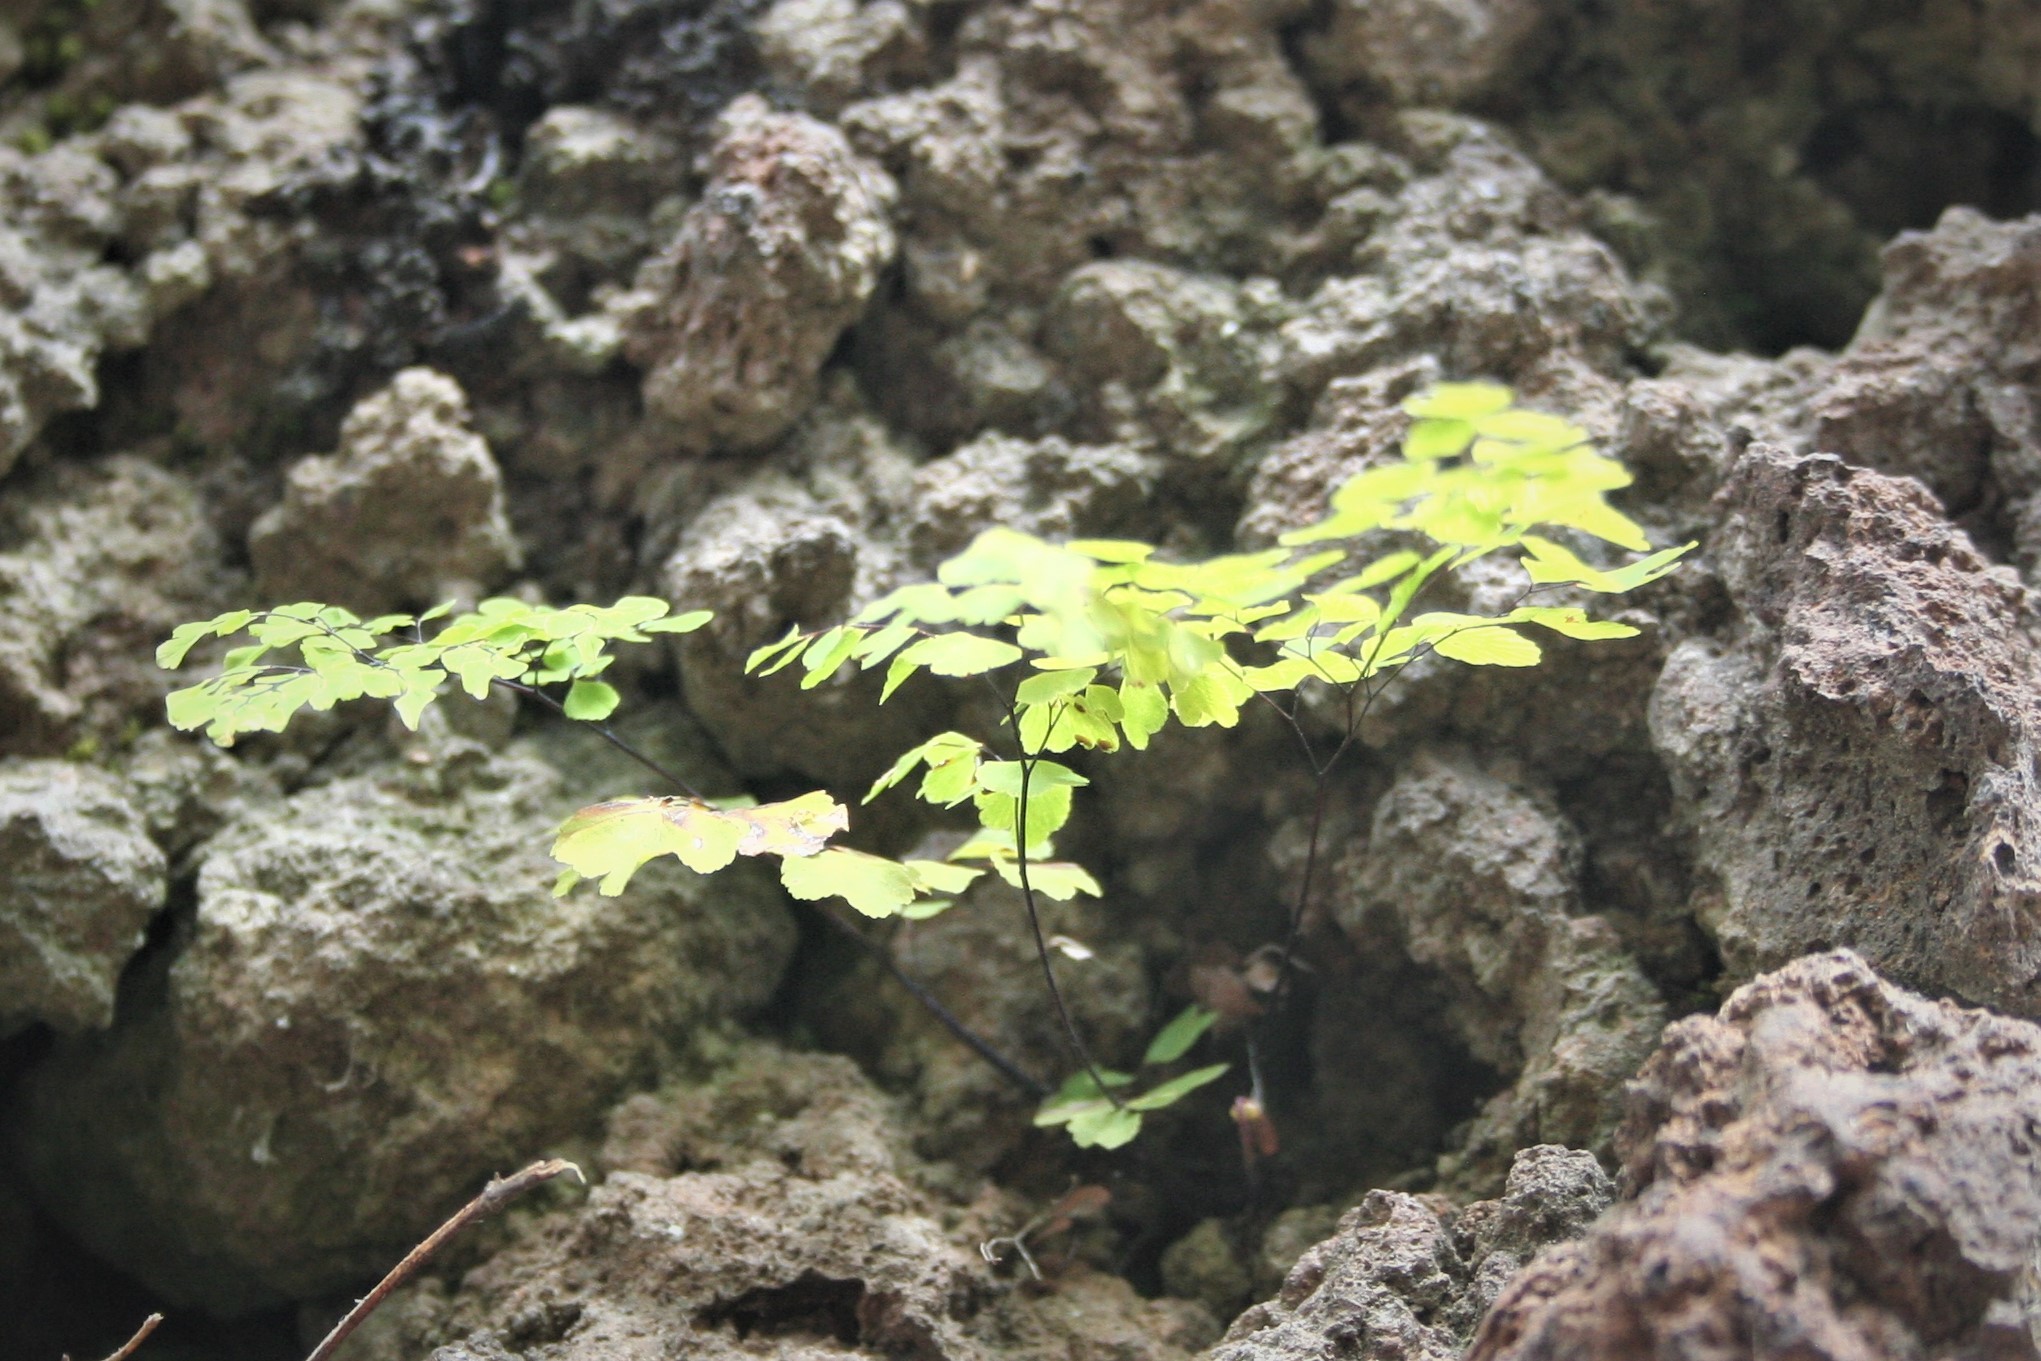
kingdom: Plantae
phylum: Tracheophyta
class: Polypodiopsida
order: Polypodiales
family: Pteridaceae
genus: Adiantum
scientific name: Adiantum capillus-veneris
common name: Maidenhair fern
